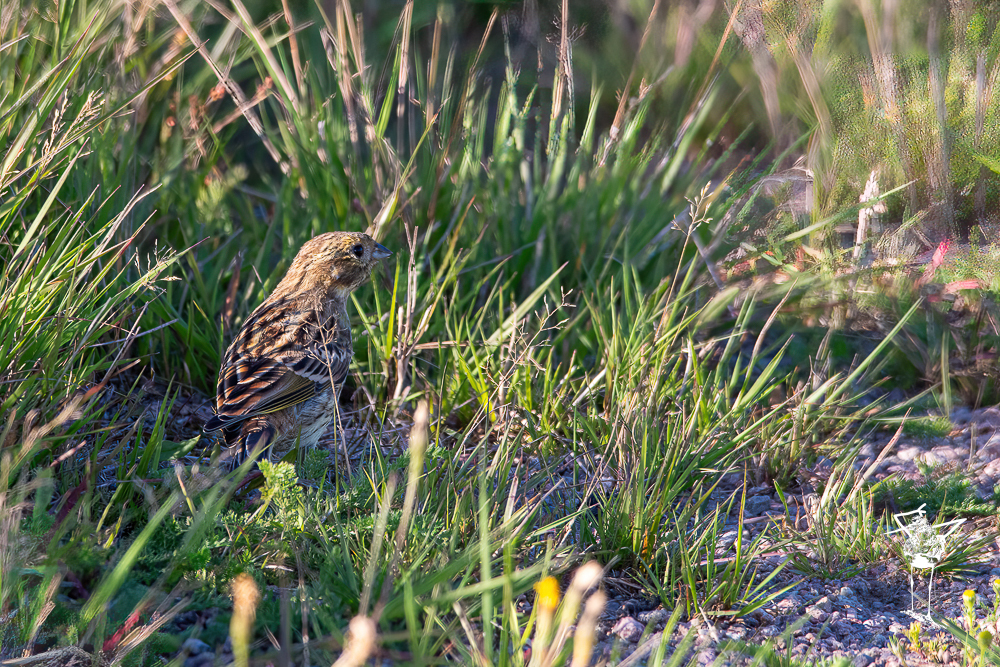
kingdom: Animalia
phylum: Chordata
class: Aves
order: Passeriformes
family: Emberizidae
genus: Emberiza
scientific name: Emberiza citrinella
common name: Yellowhammer
